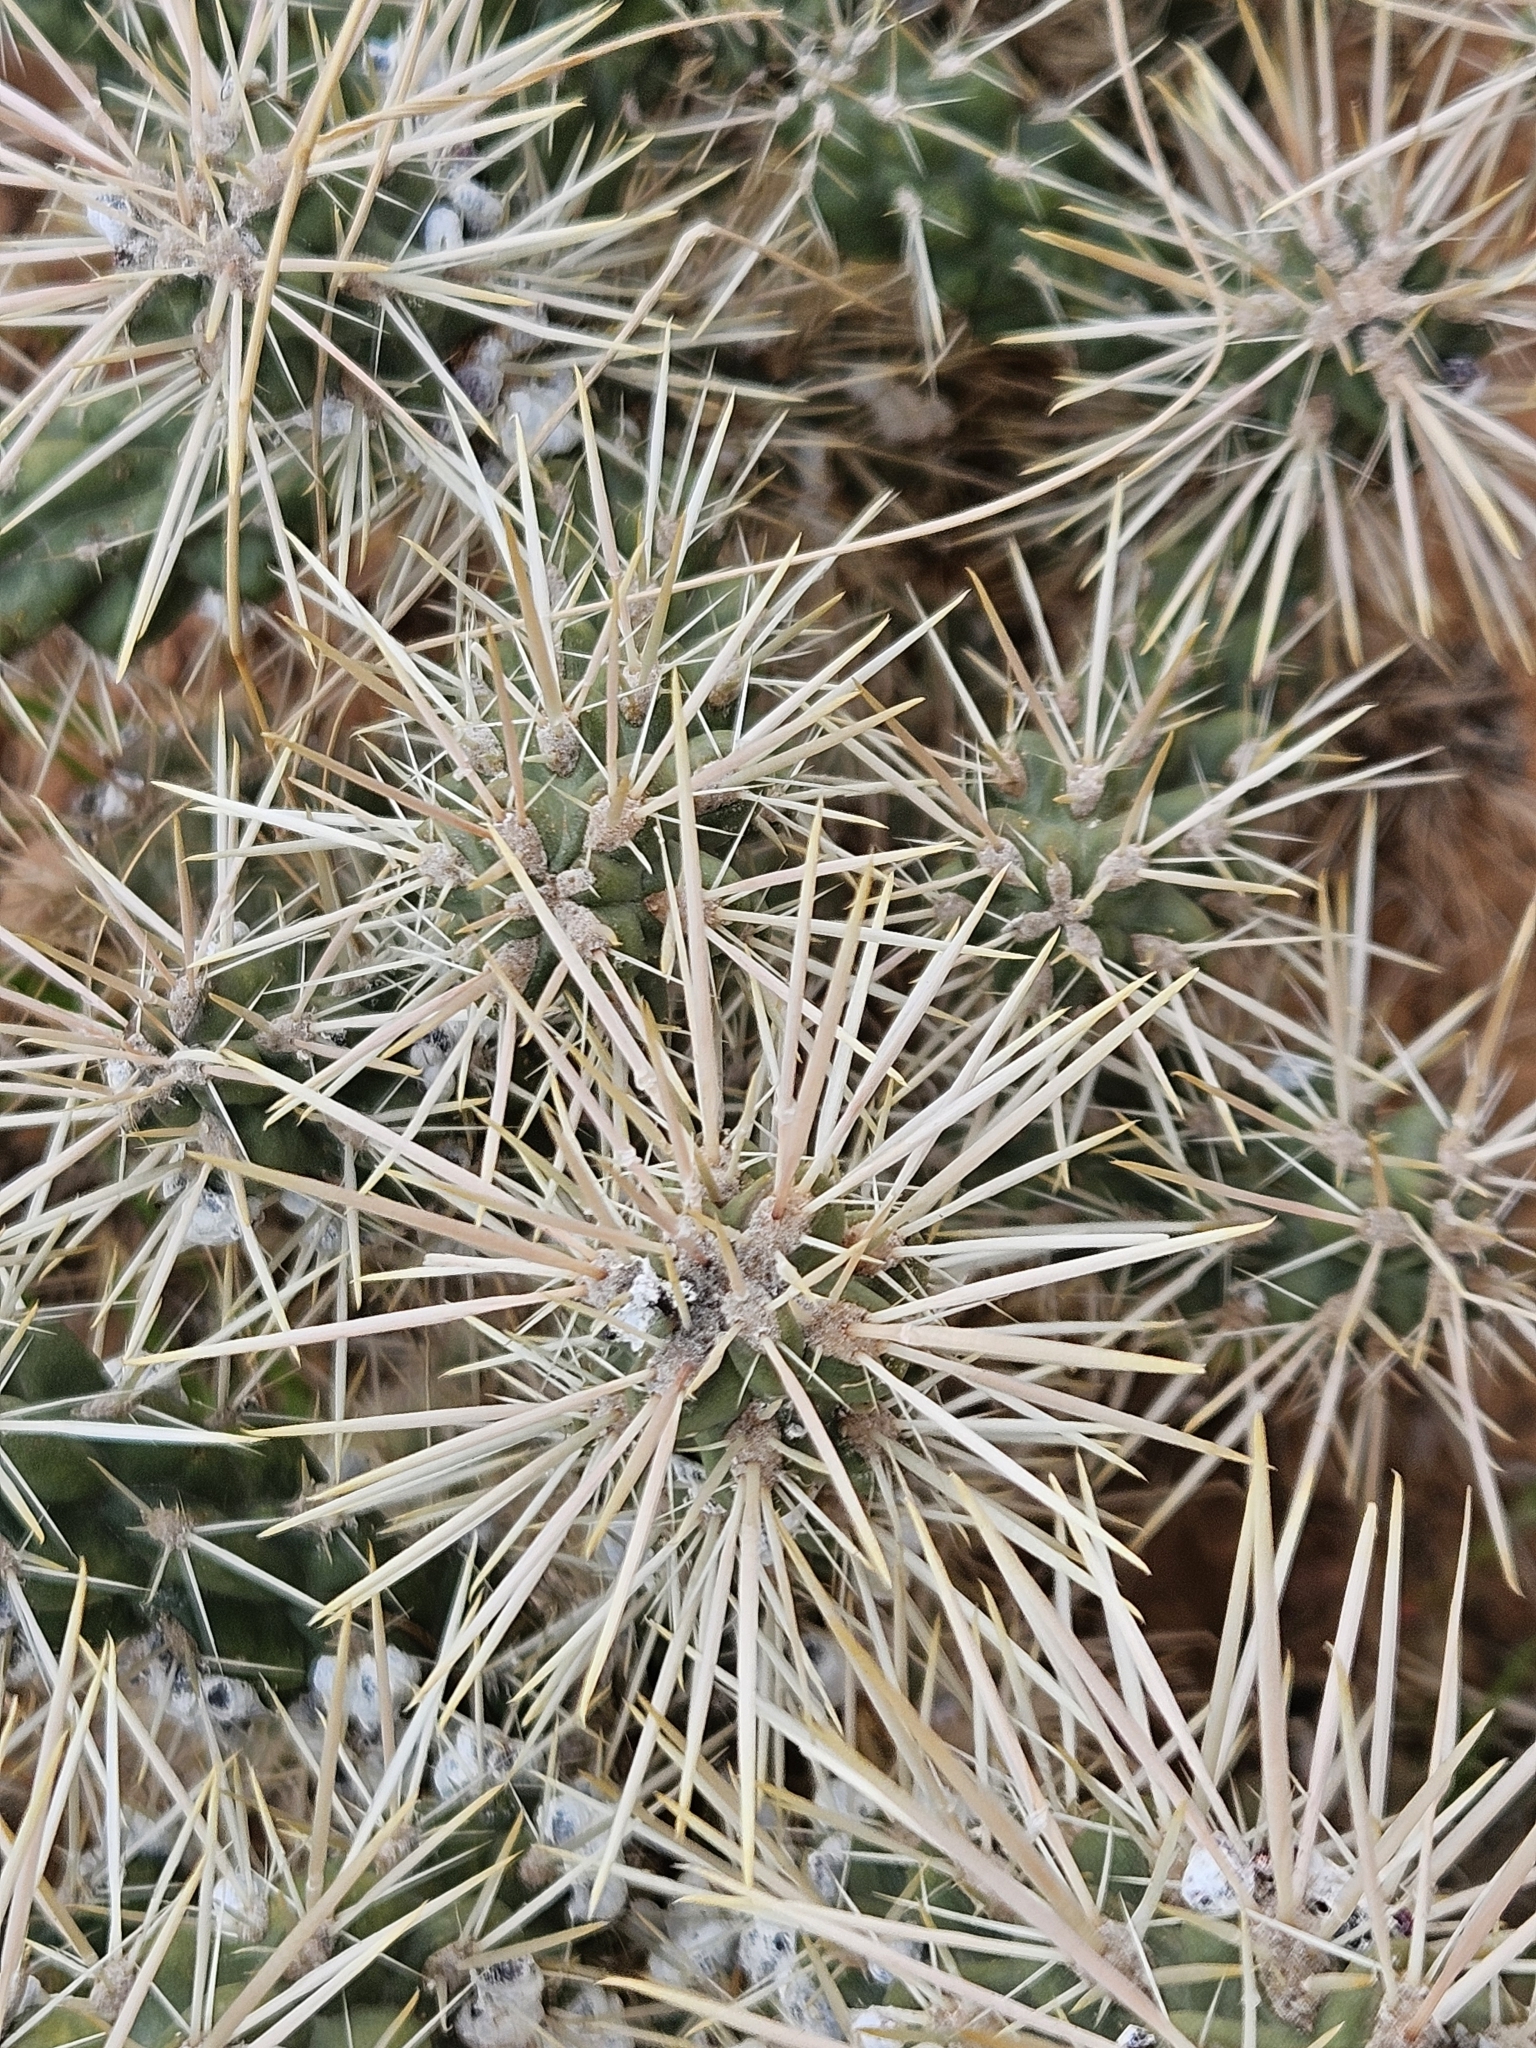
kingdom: Plantae
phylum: Tracheophyta
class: Magnoliopsida
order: Caryophyllales
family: Cactaceae
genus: Cylindropuntia
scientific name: Cylindropuntia whipplei
